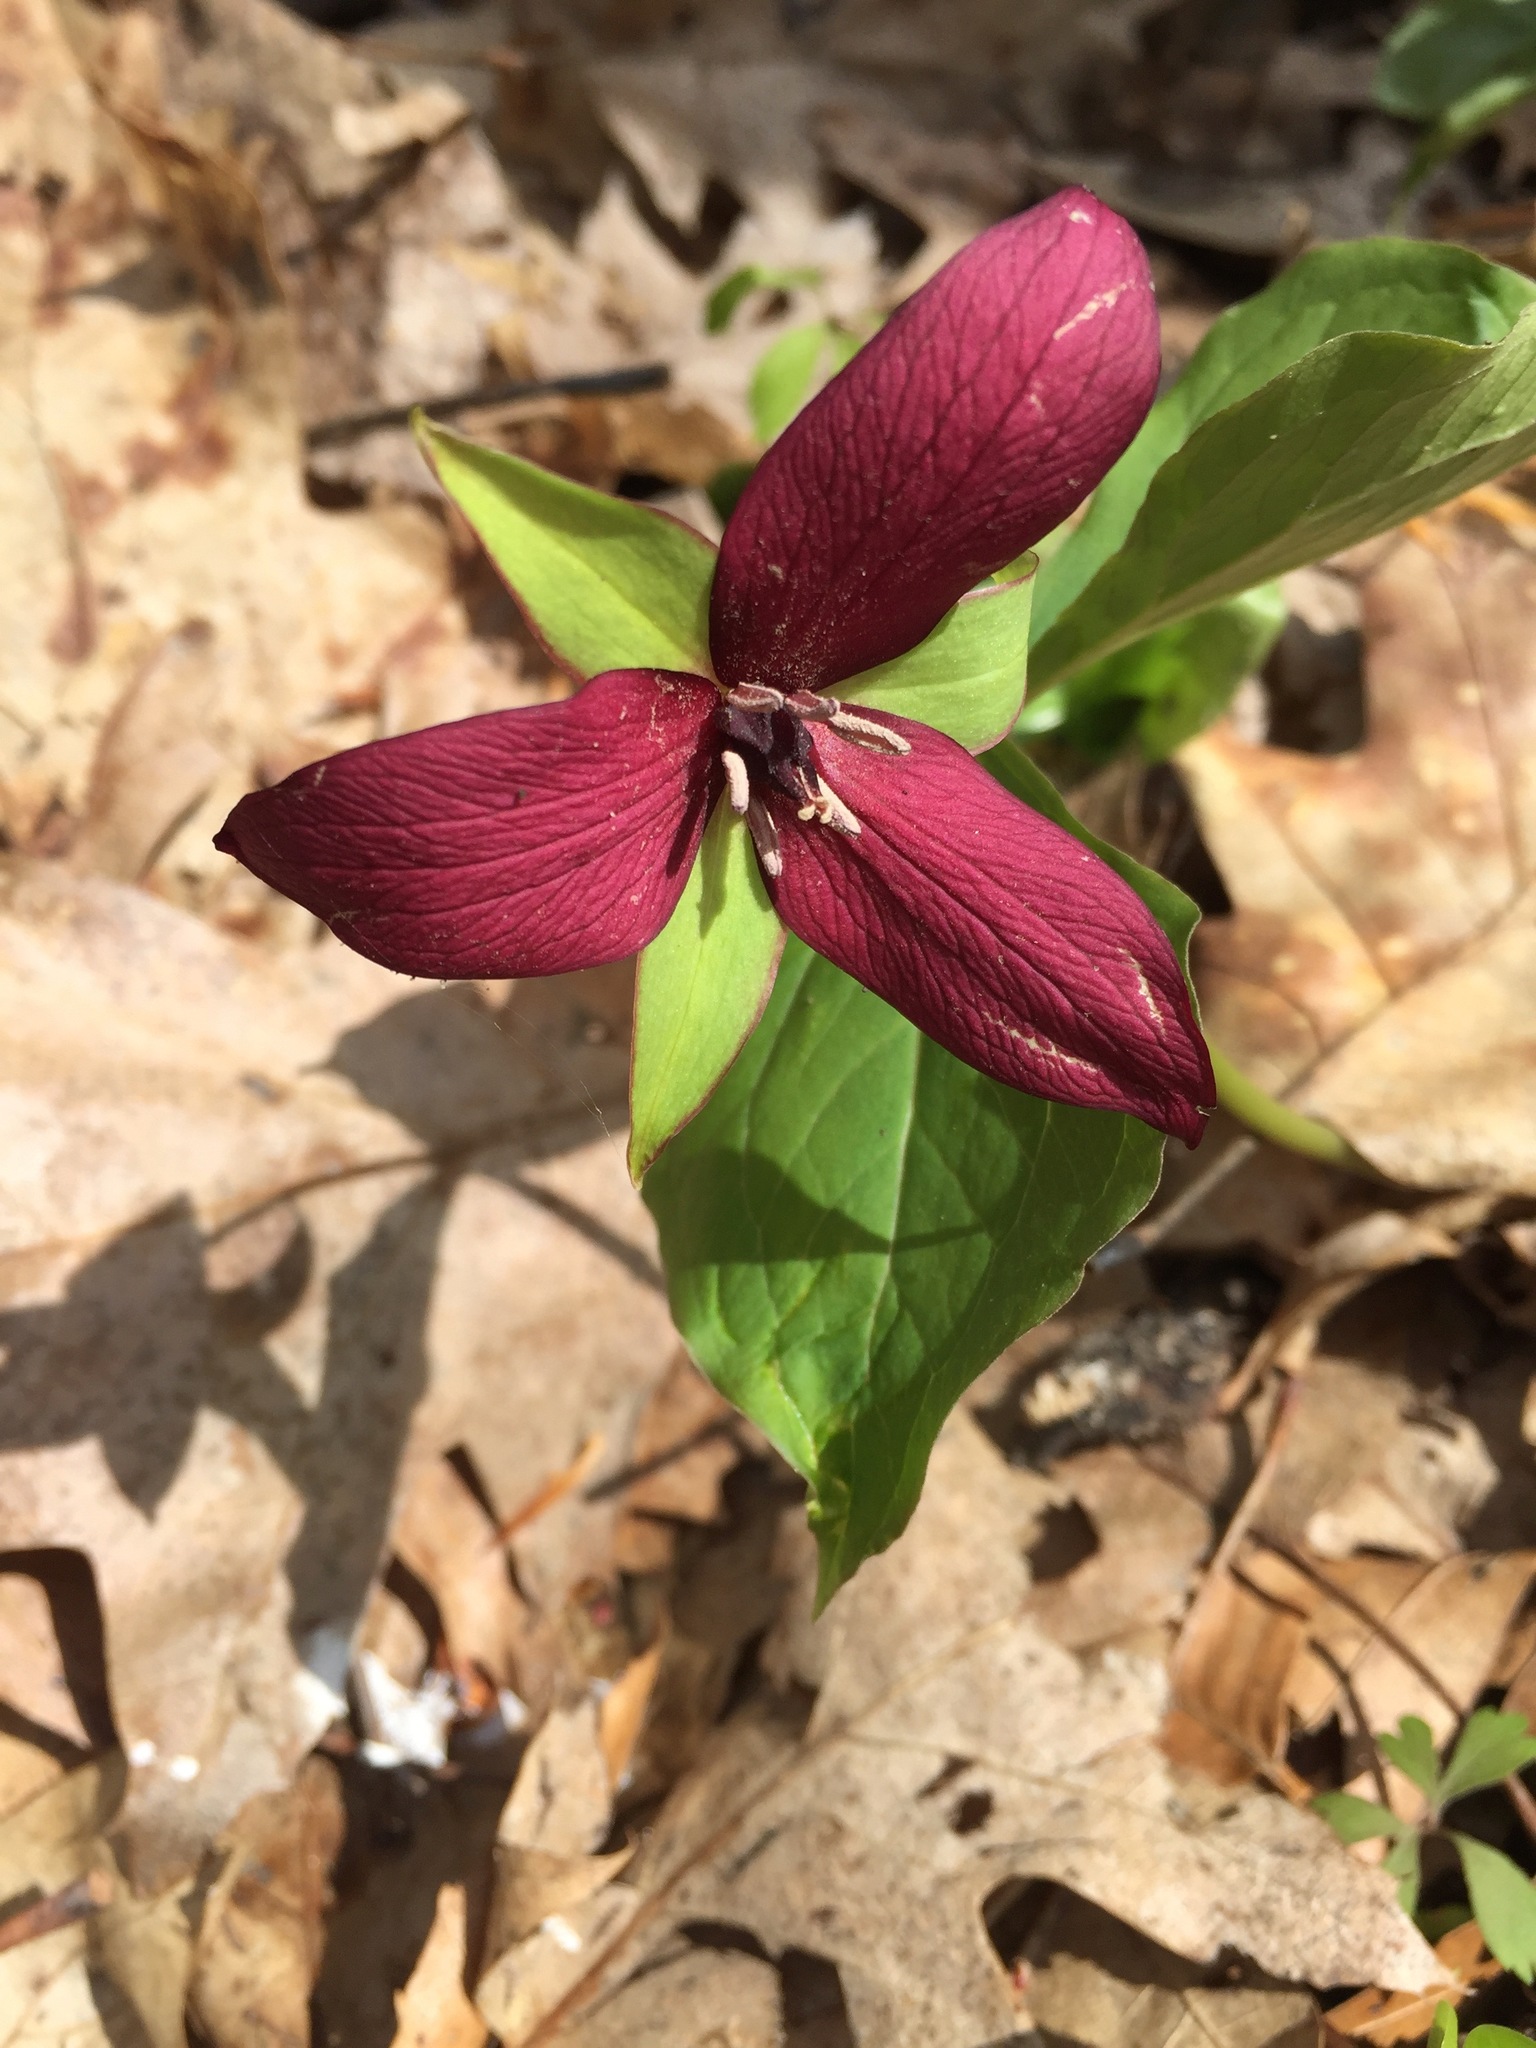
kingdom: Plantae
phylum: Tracheophyta
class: Liliopsida
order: Liliales
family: Melanthiaceae
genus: Trillium
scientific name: Trillium erectum
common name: Purple trillium
